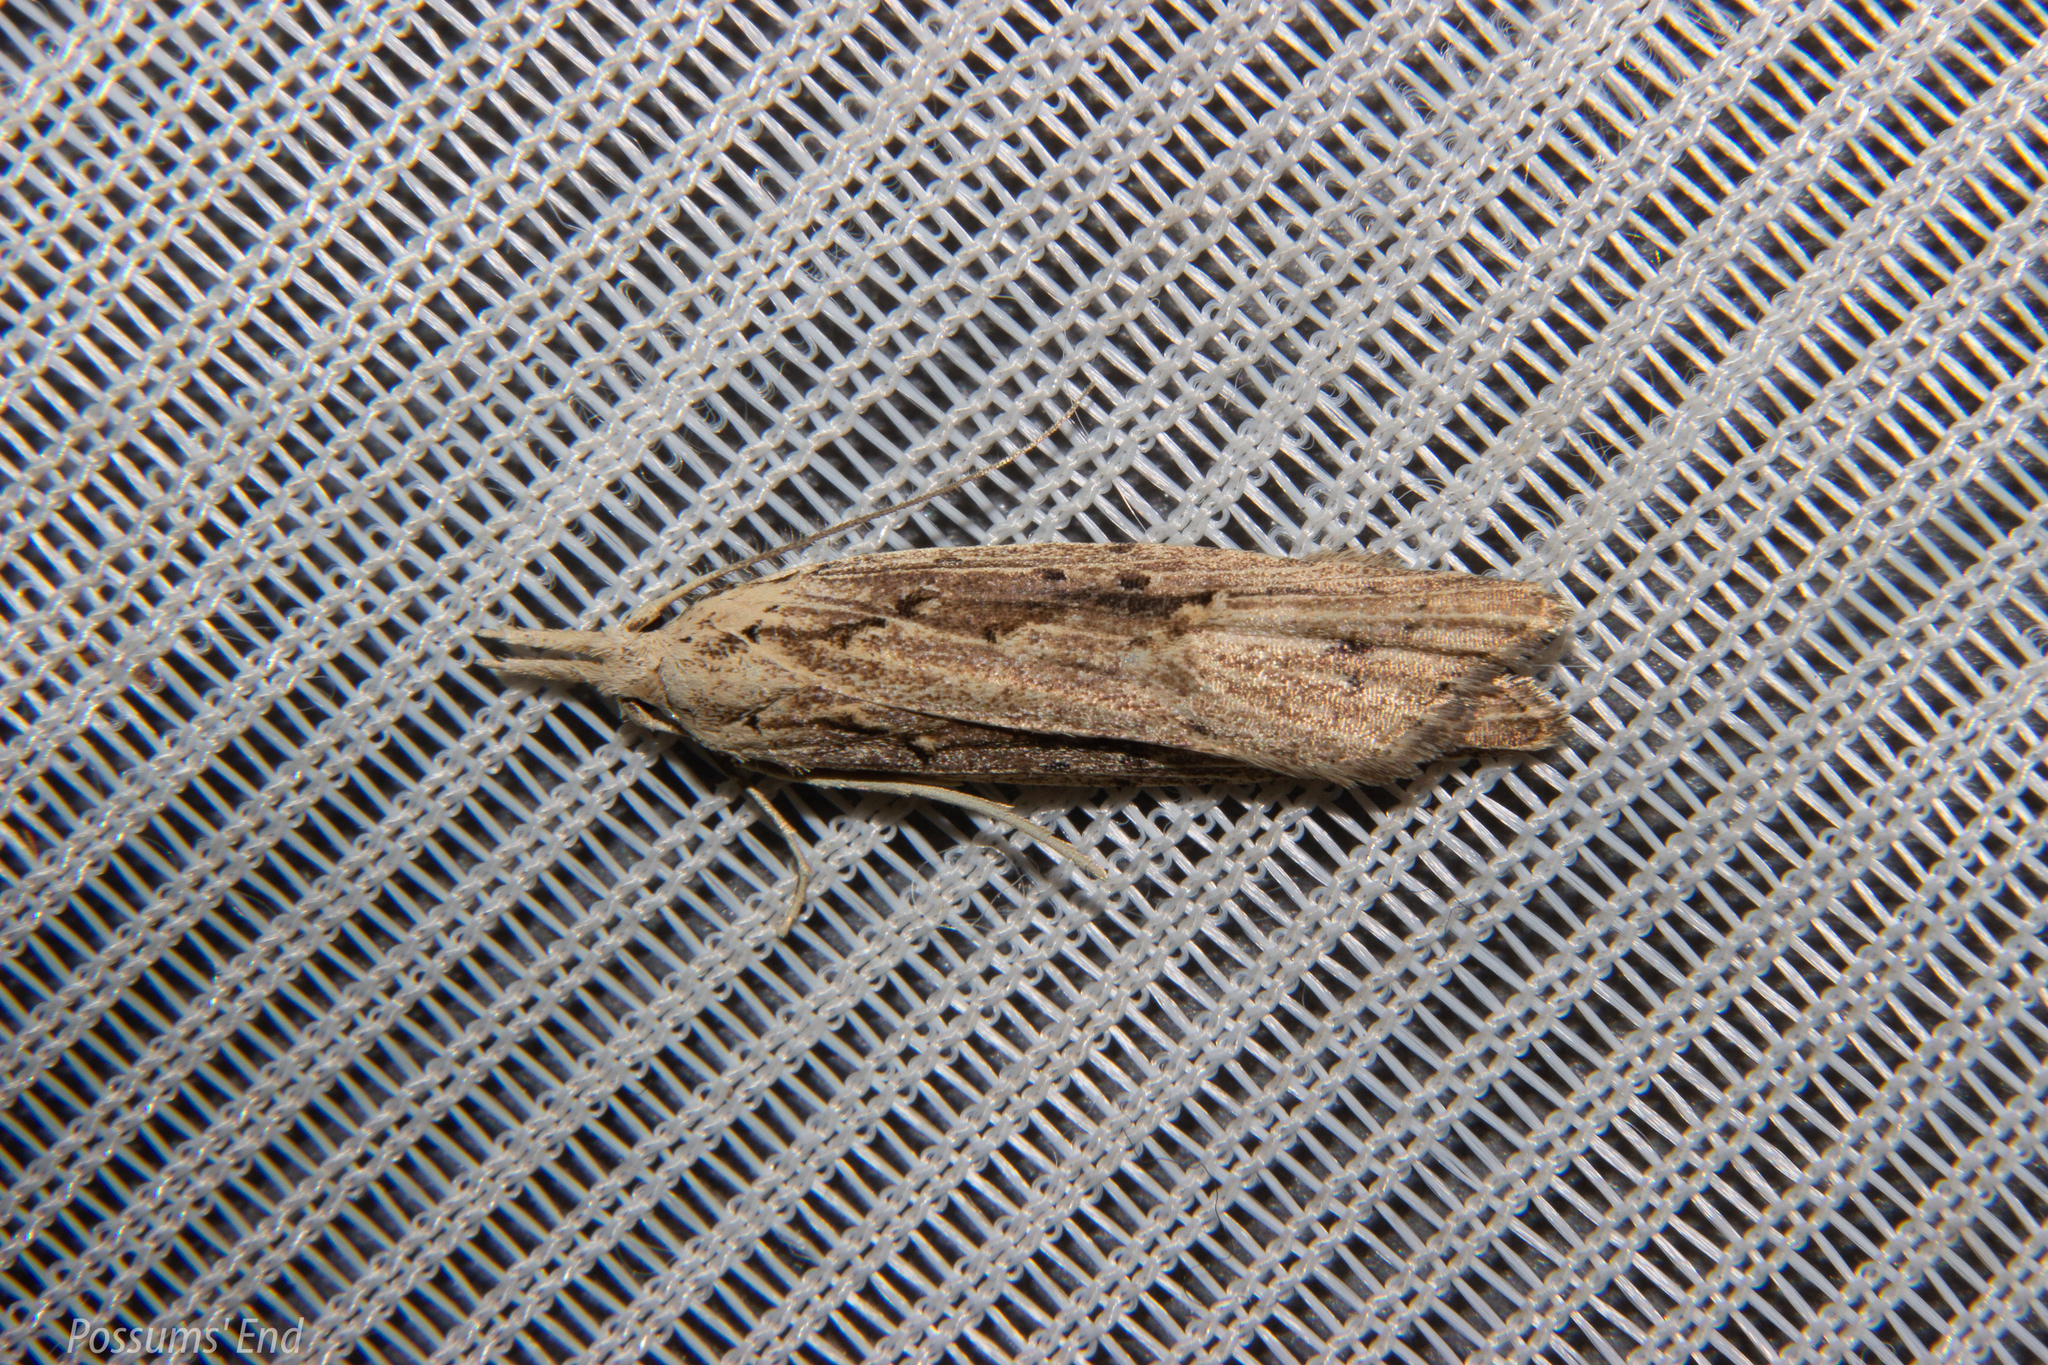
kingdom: Animalia
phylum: Arthropoda
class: Insecta
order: Lepidoptera
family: Carposinidae
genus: Carposina
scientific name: Carposina Heterocrossa exochana
